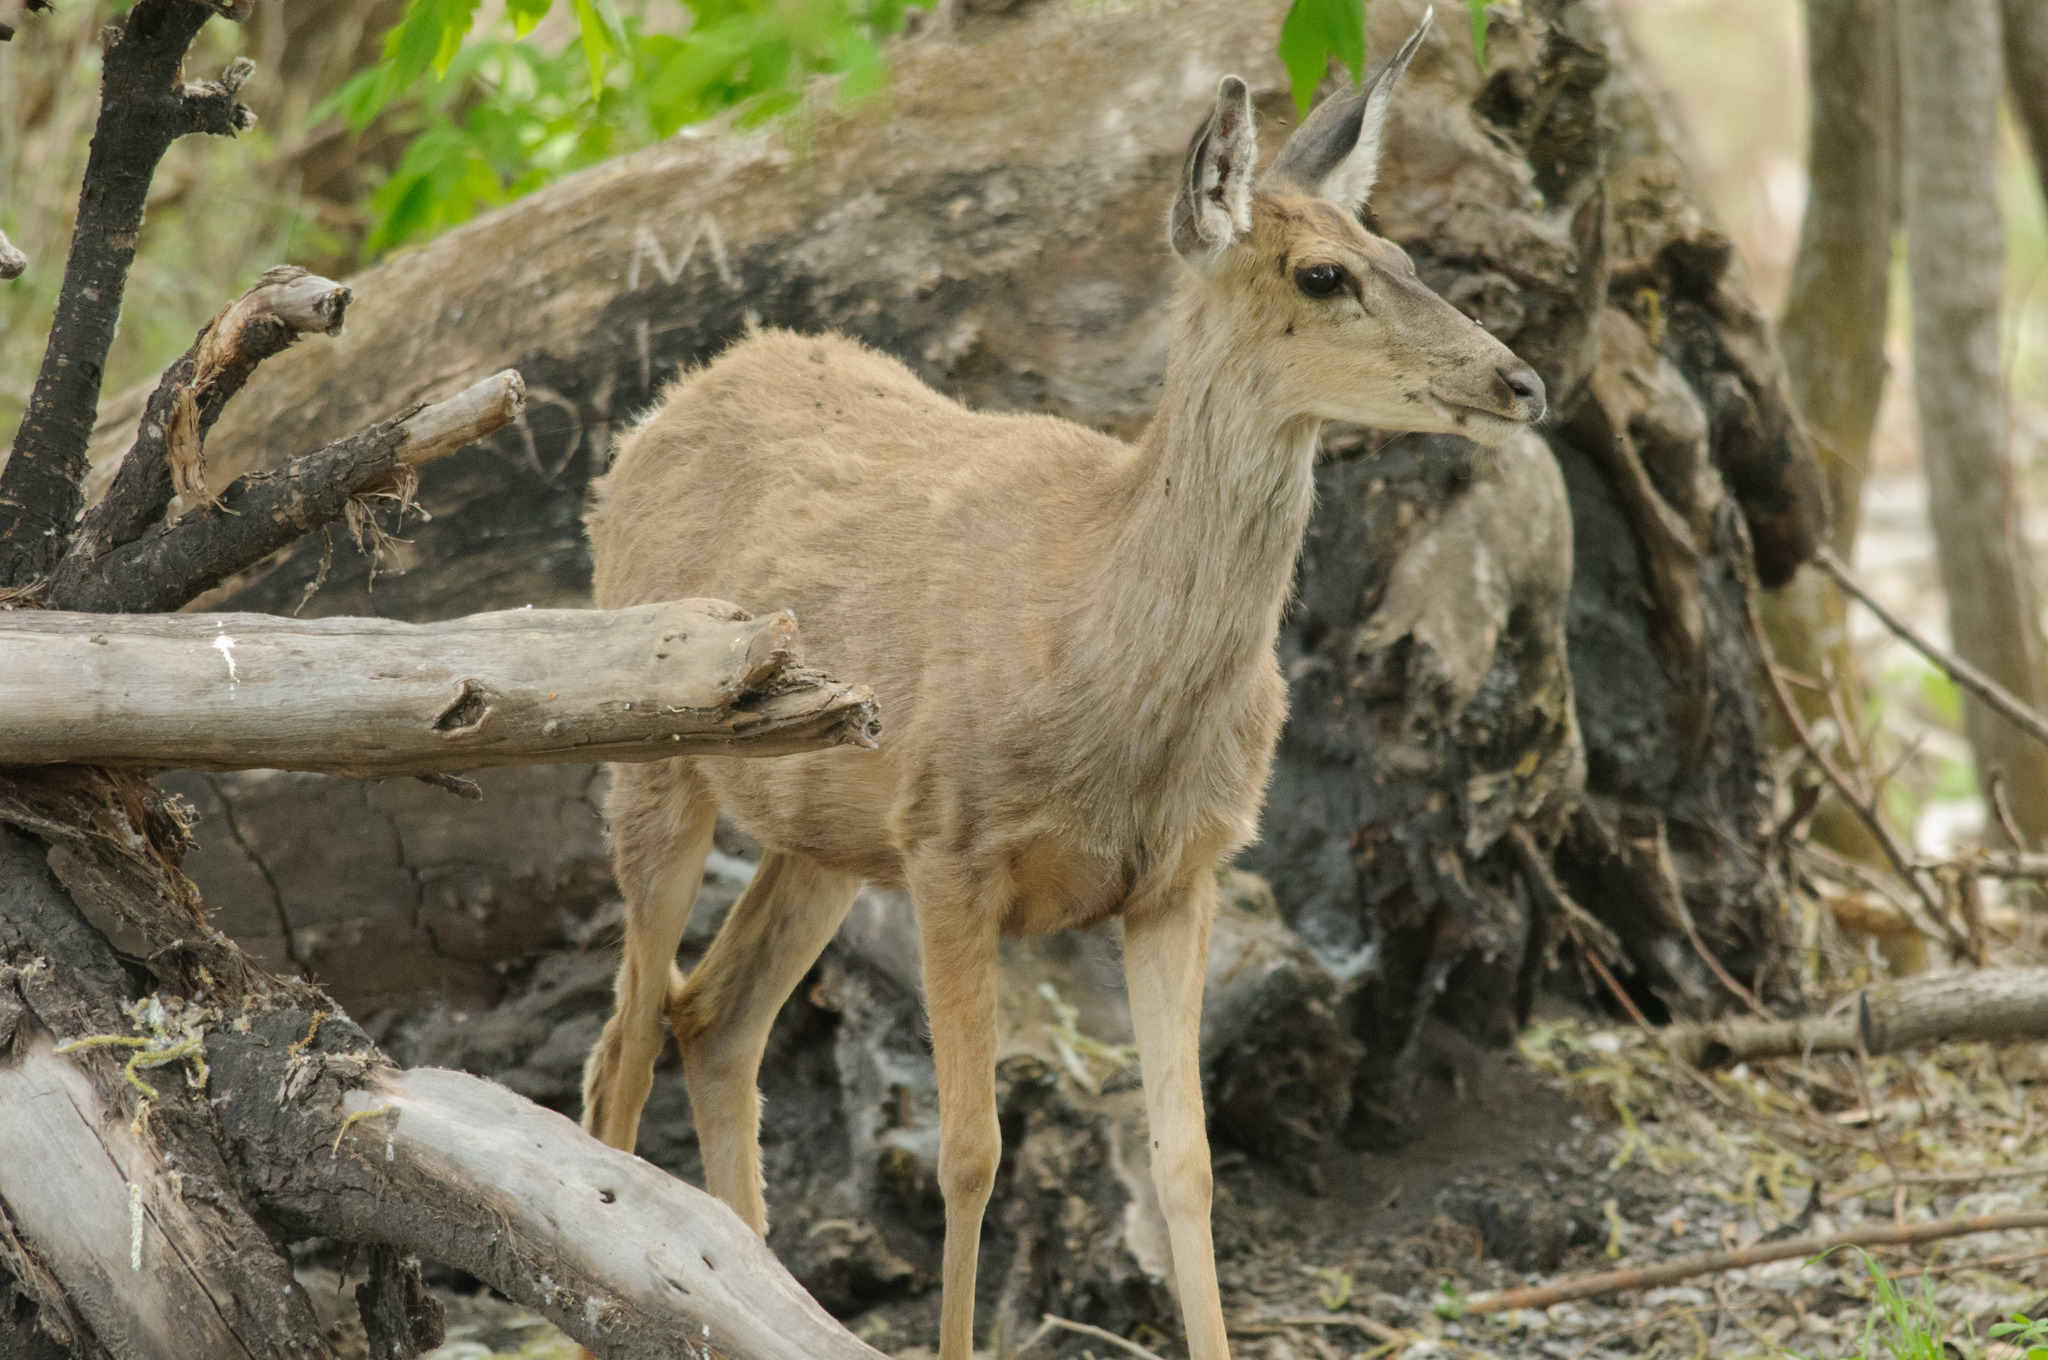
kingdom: Animalia
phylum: Chordata
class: Mammalia
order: Artiodactyla
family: Cervidae
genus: Odocoileus
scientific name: Odocoileus hemionus
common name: Mule deer
